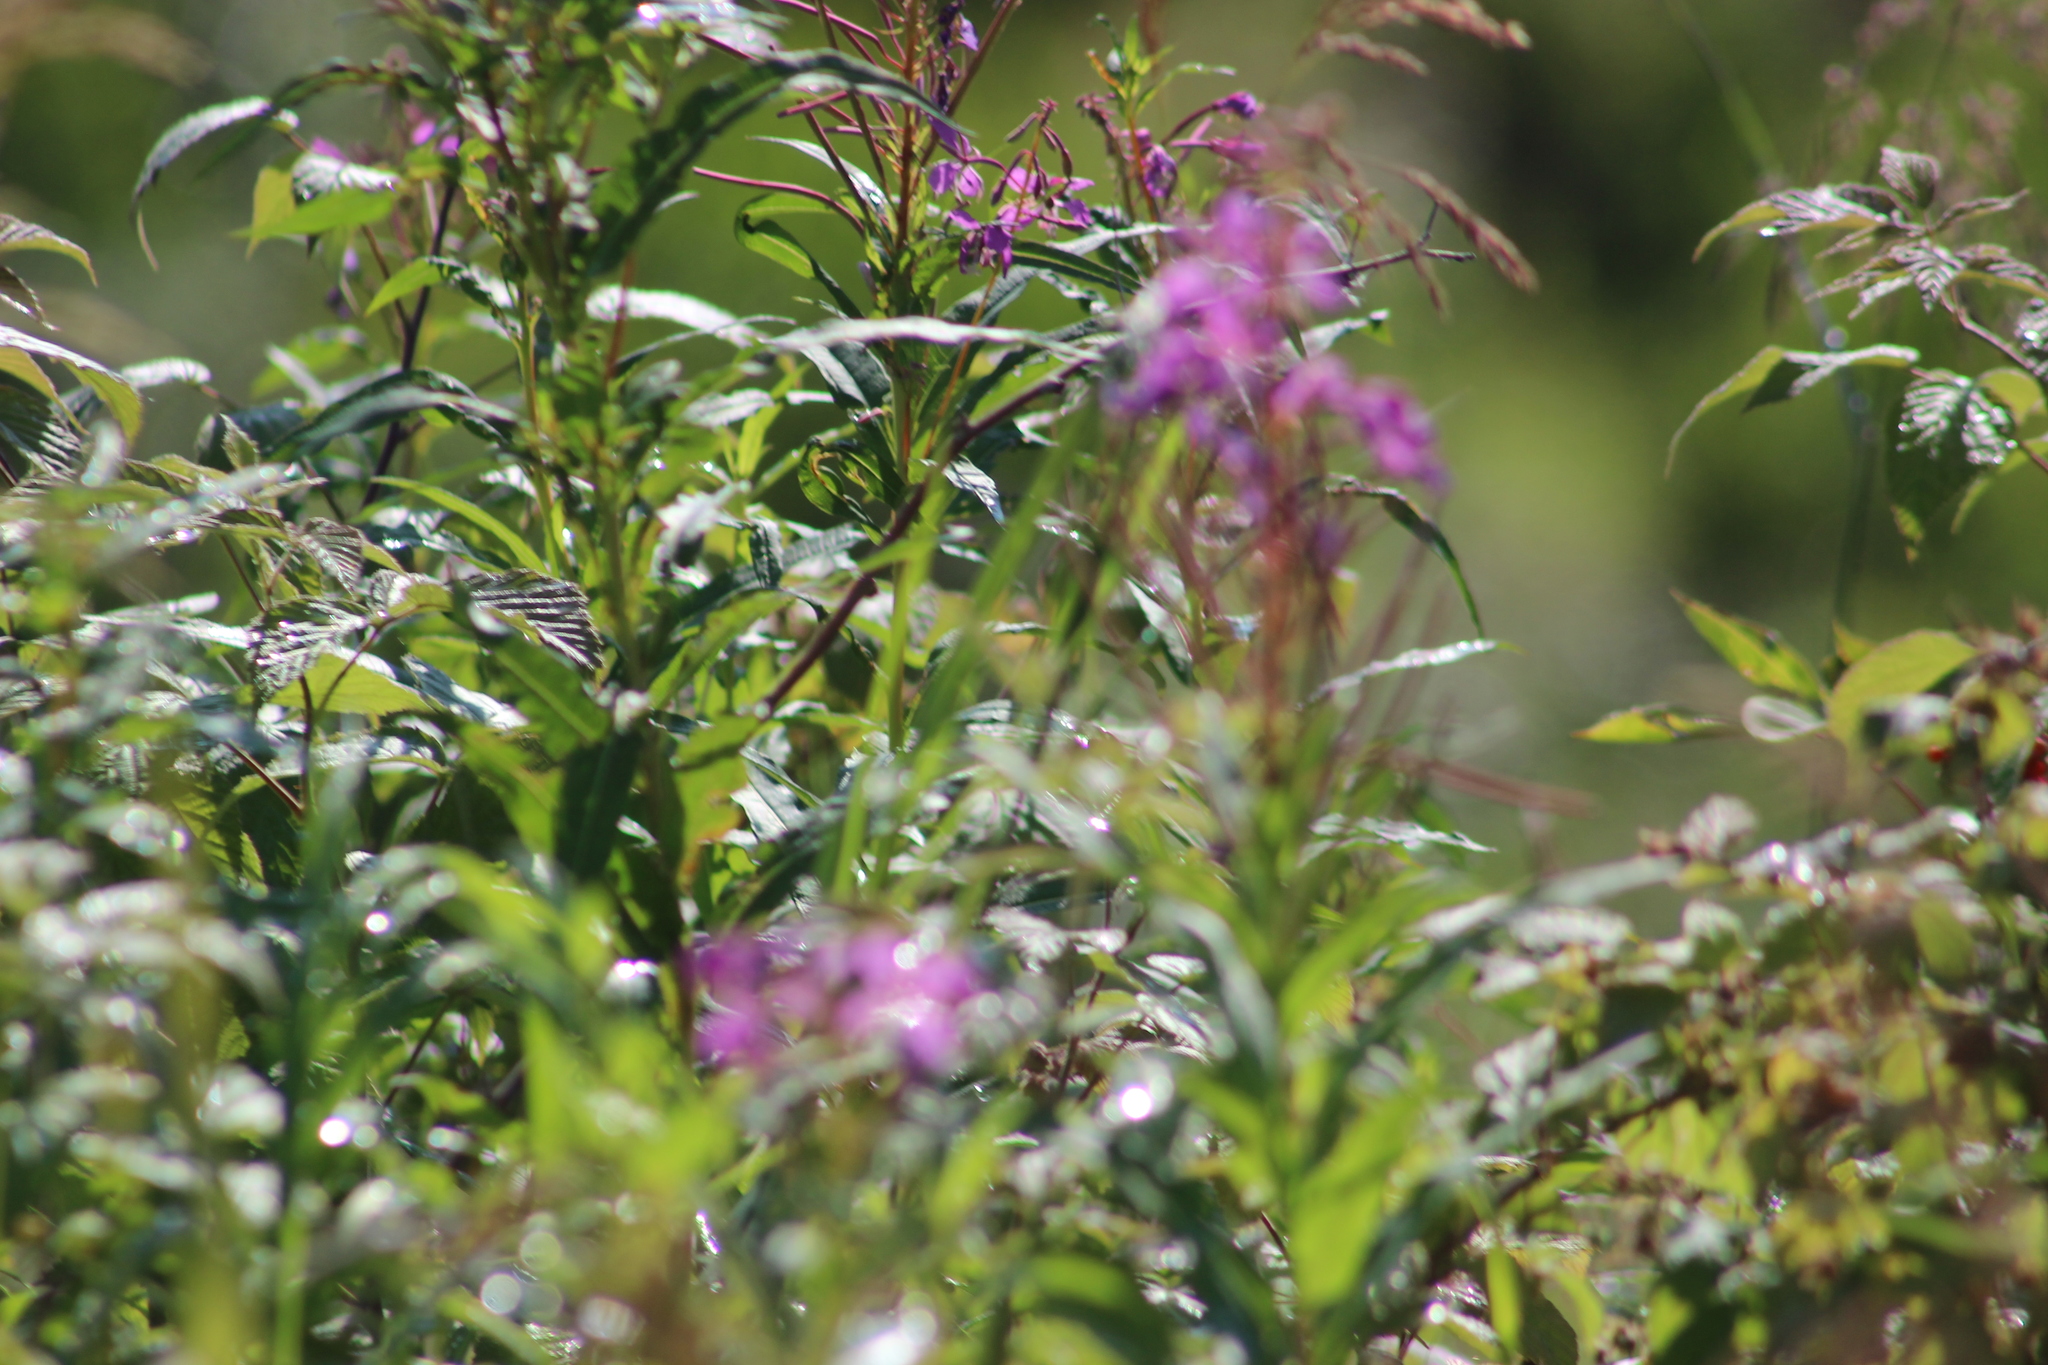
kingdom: Plantae
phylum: Tracheophyta
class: Magnoliopsida
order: Myrtales
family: Onagraceae
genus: Chamaenerion
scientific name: Chamaenerion angustifolium
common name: Fireweed
